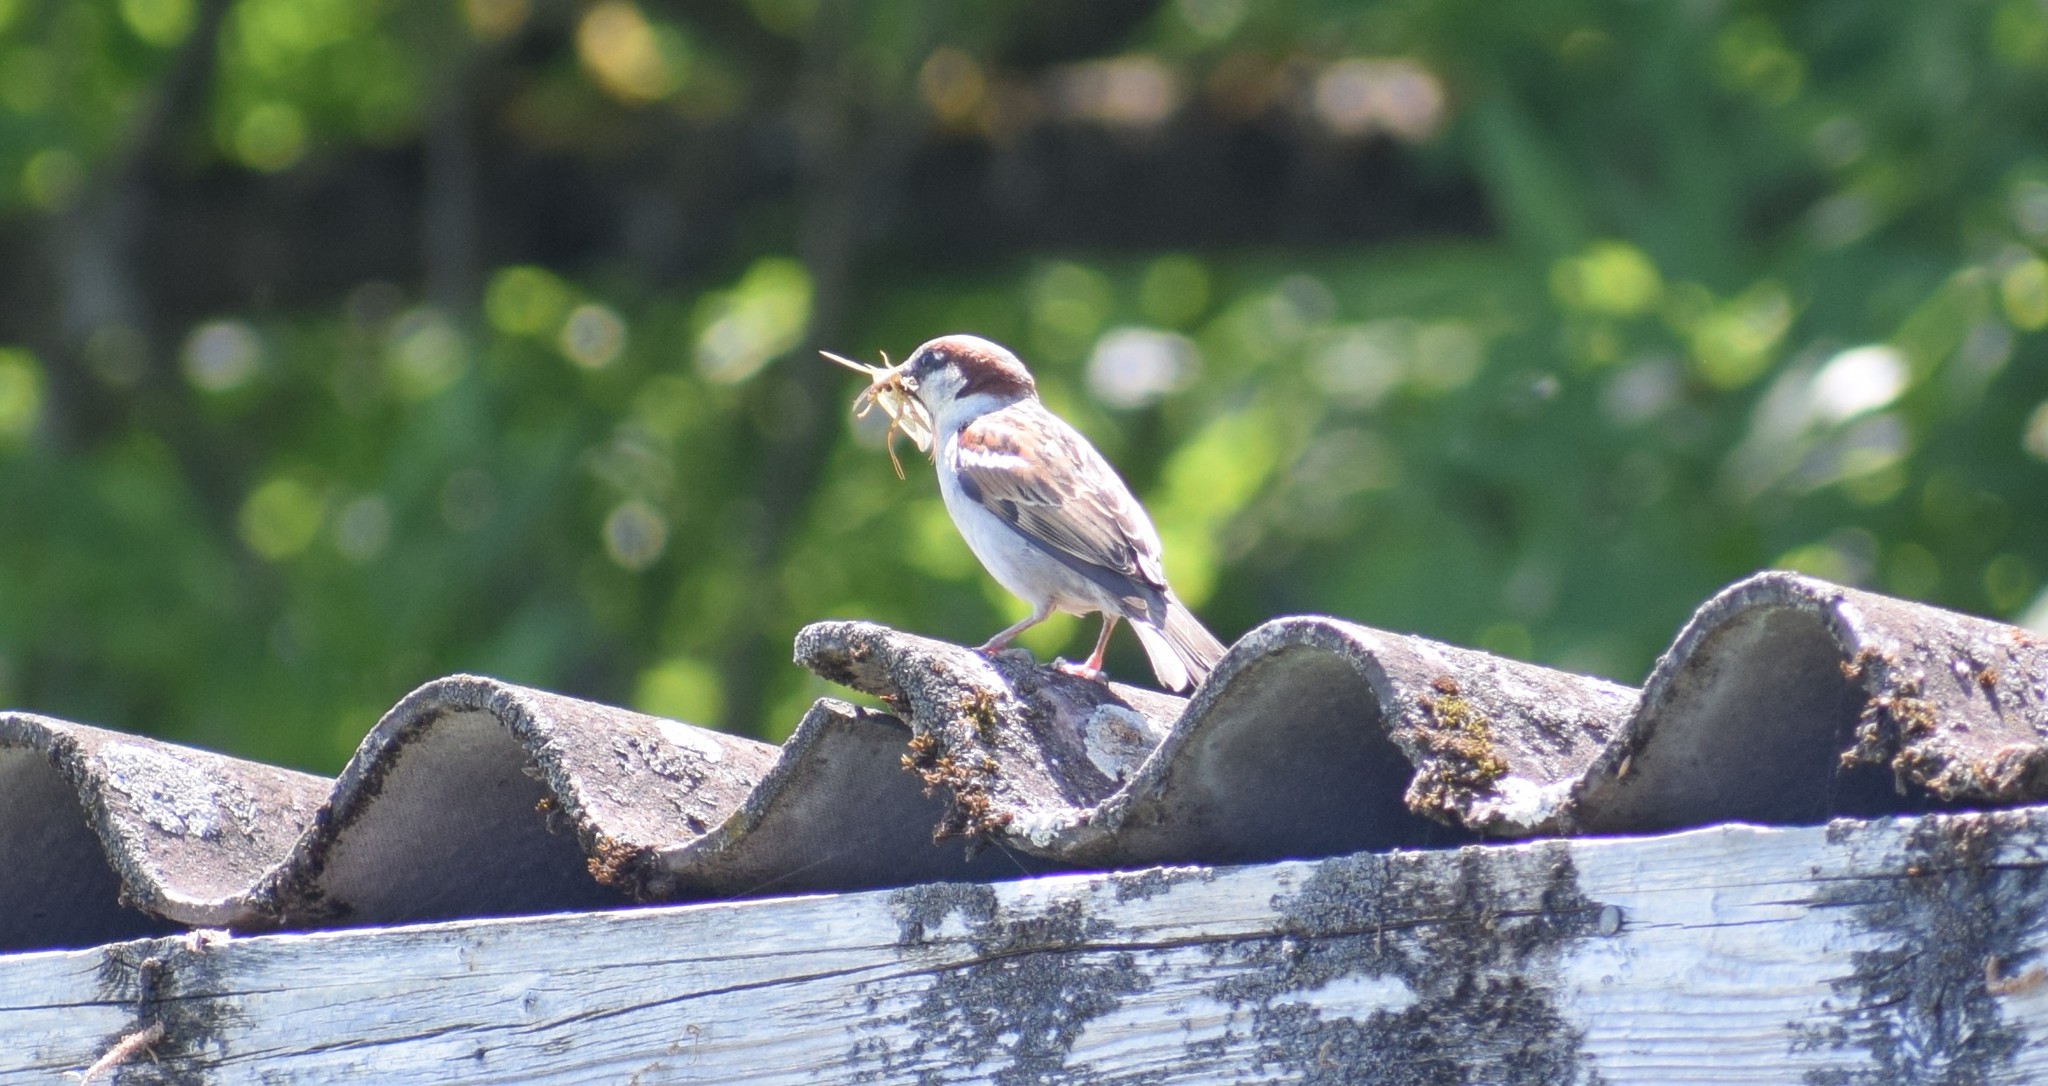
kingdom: Animalia
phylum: Chordata
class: Aves
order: Passeriformes
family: Passeridae
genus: Passer
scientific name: Passer domesticus
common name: House sparrow
